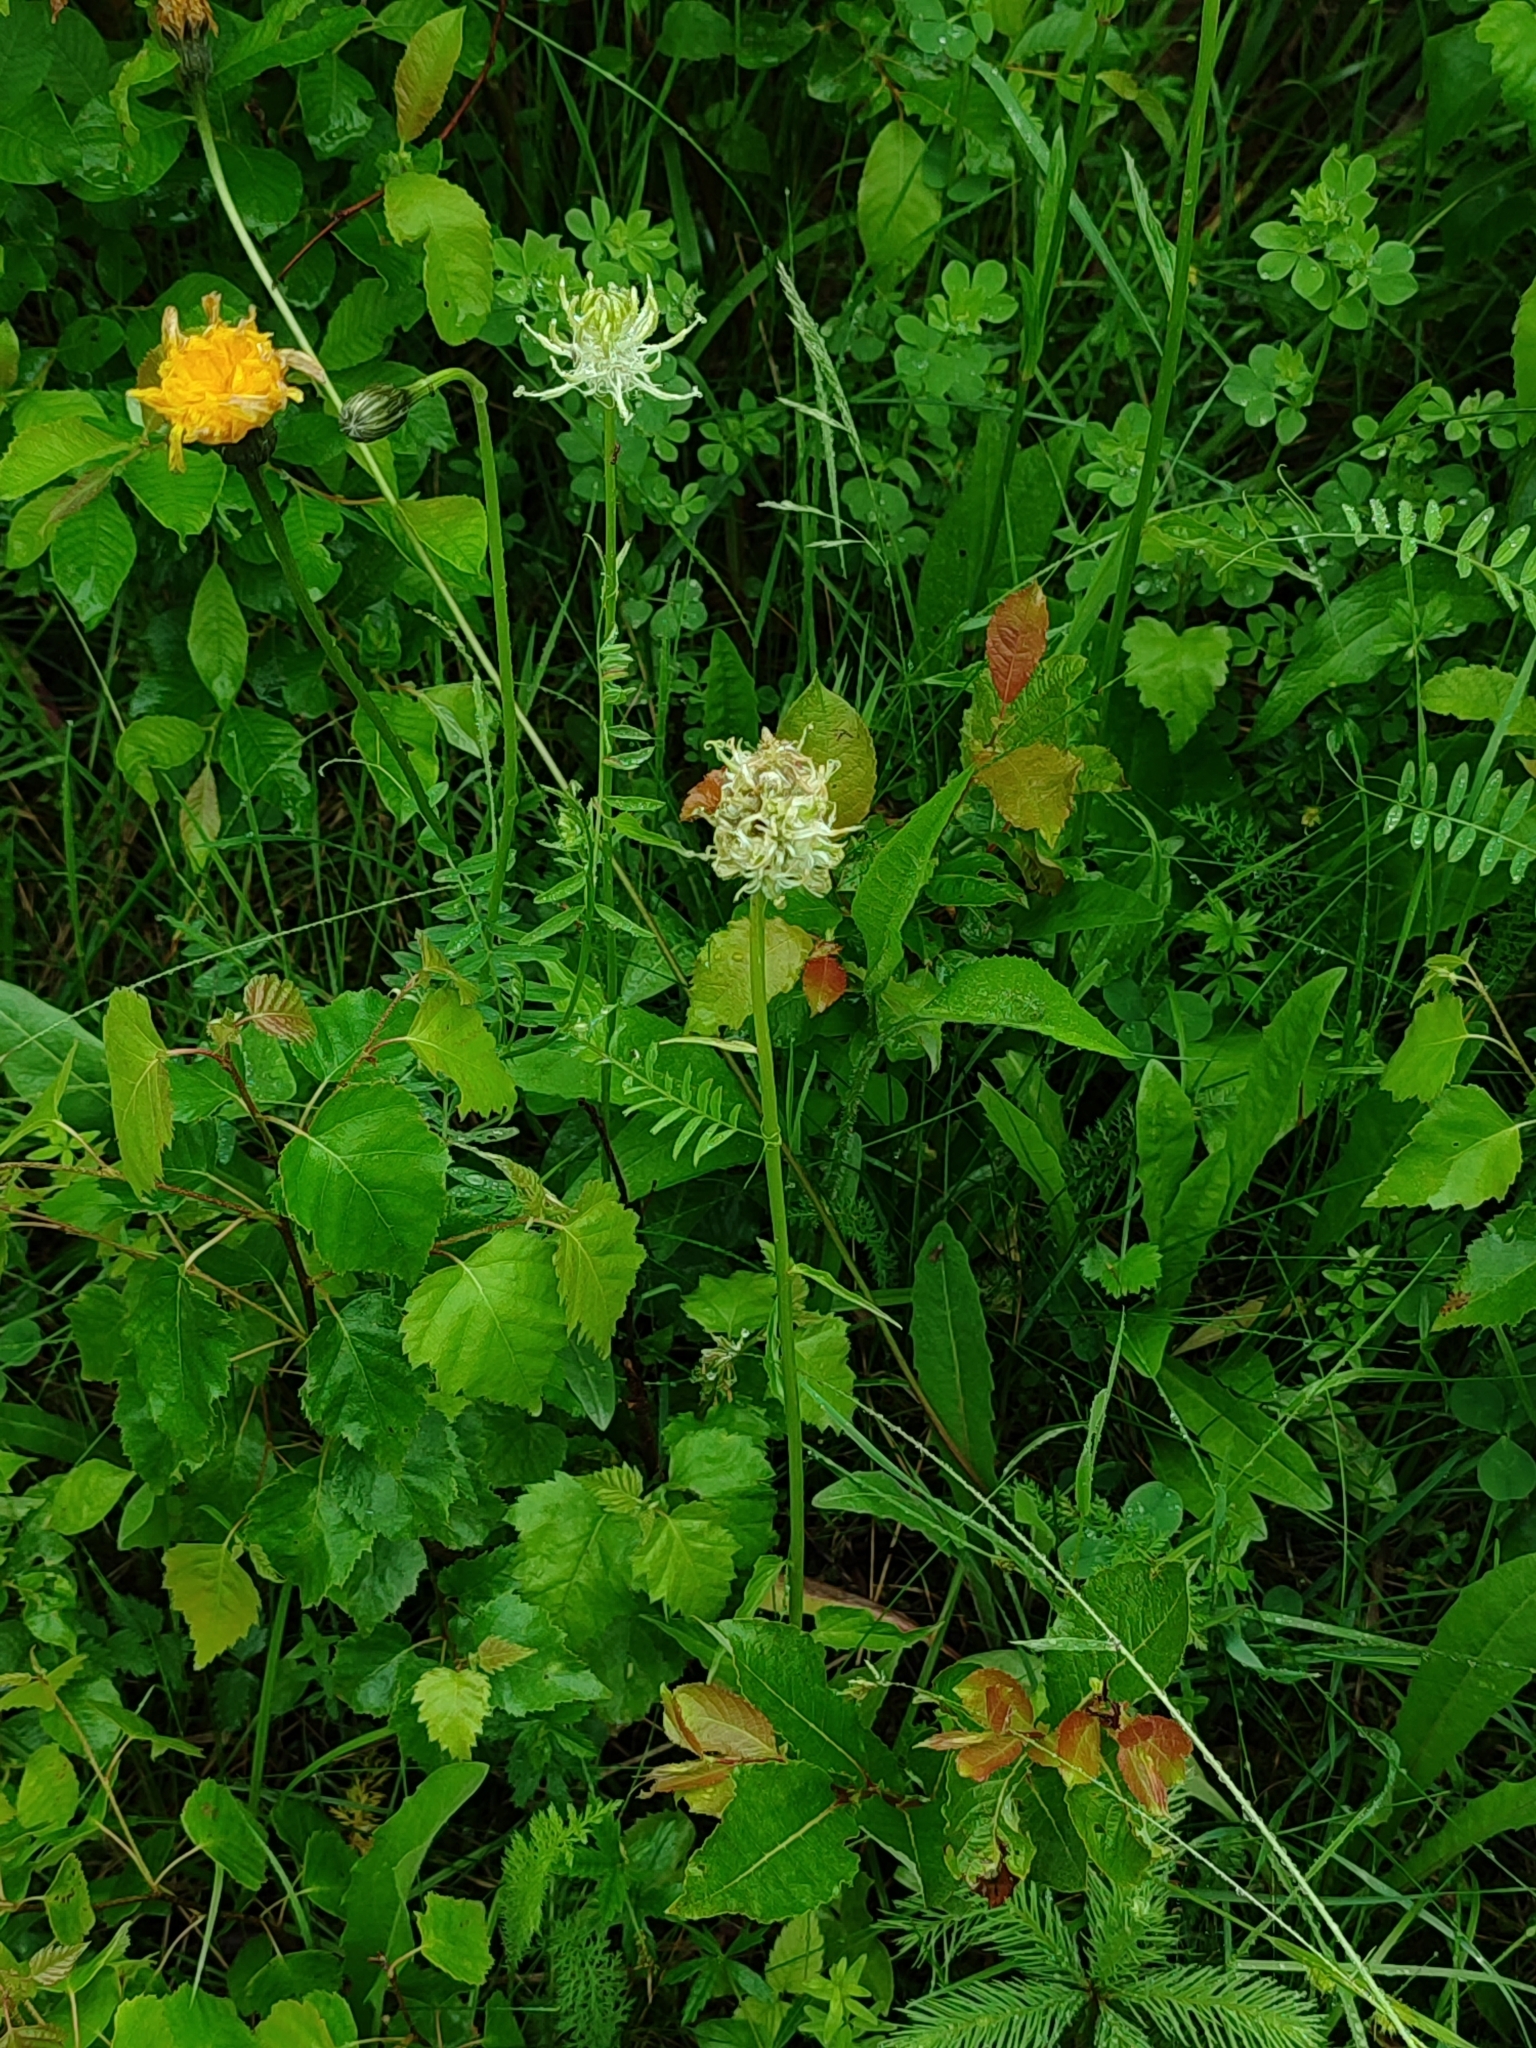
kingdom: Plantae
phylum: Tracheophyta
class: Magnoliopsida
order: Asterales
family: Campanulaceae
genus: Phyteuma
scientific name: Phyteuma spicatum
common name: Spiked rampion
